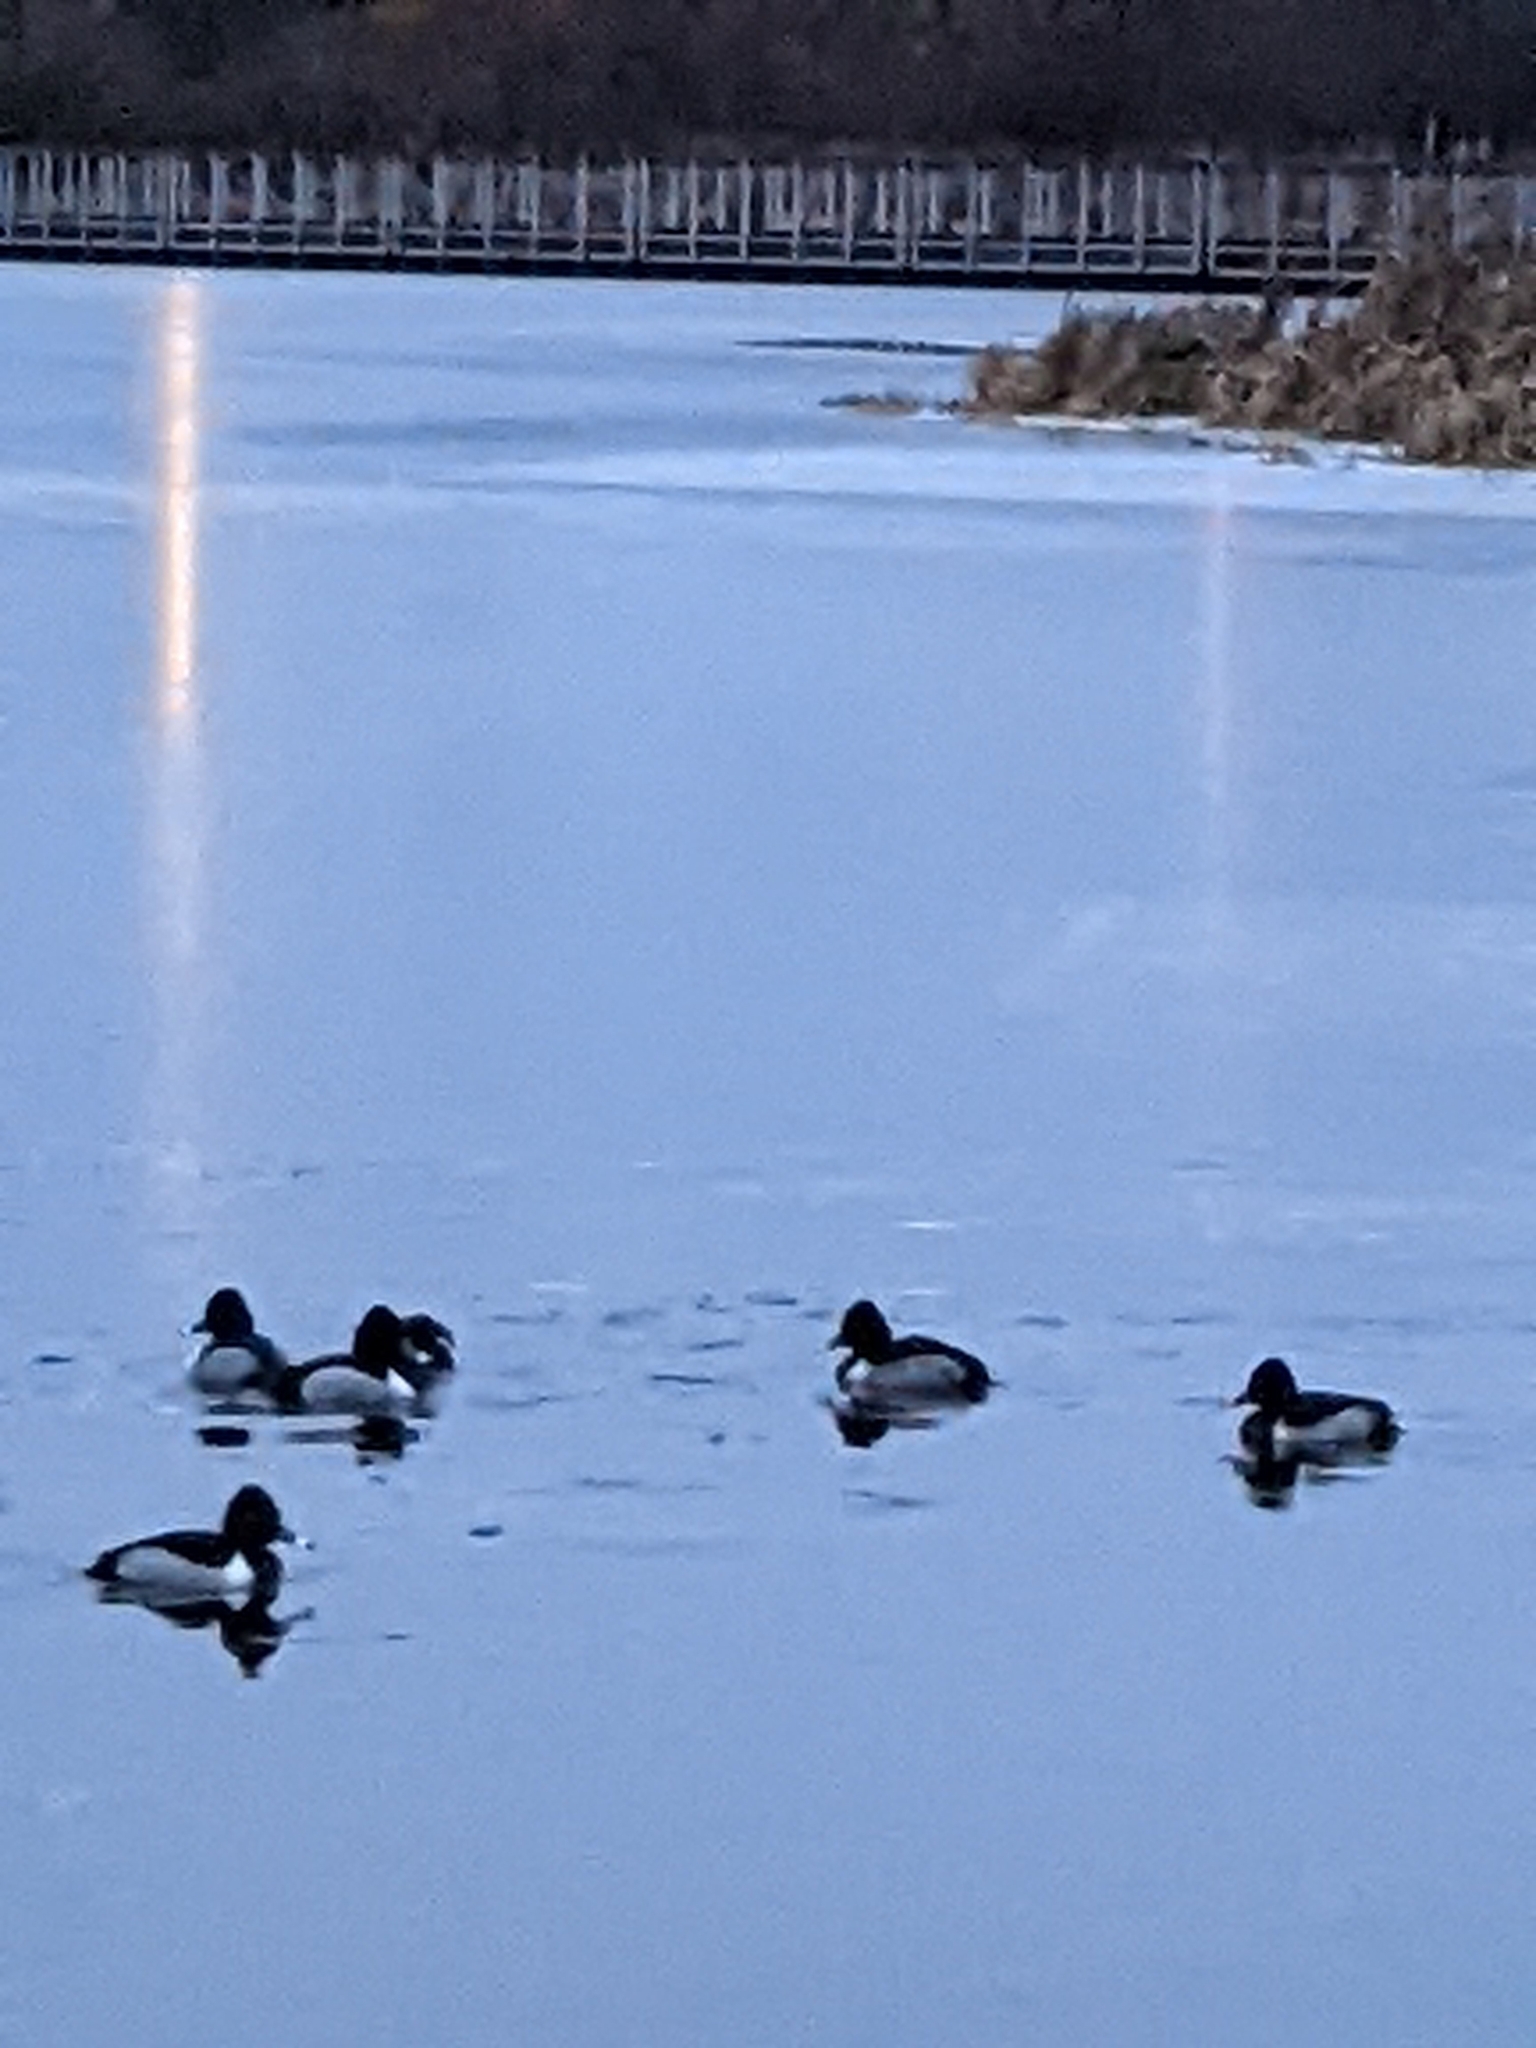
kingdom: Animalia
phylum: Chordata
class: Aves
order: Anseriformes
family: Anatidae
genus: Aythya
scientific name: Aythya collaris
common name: Ring-necked duck
